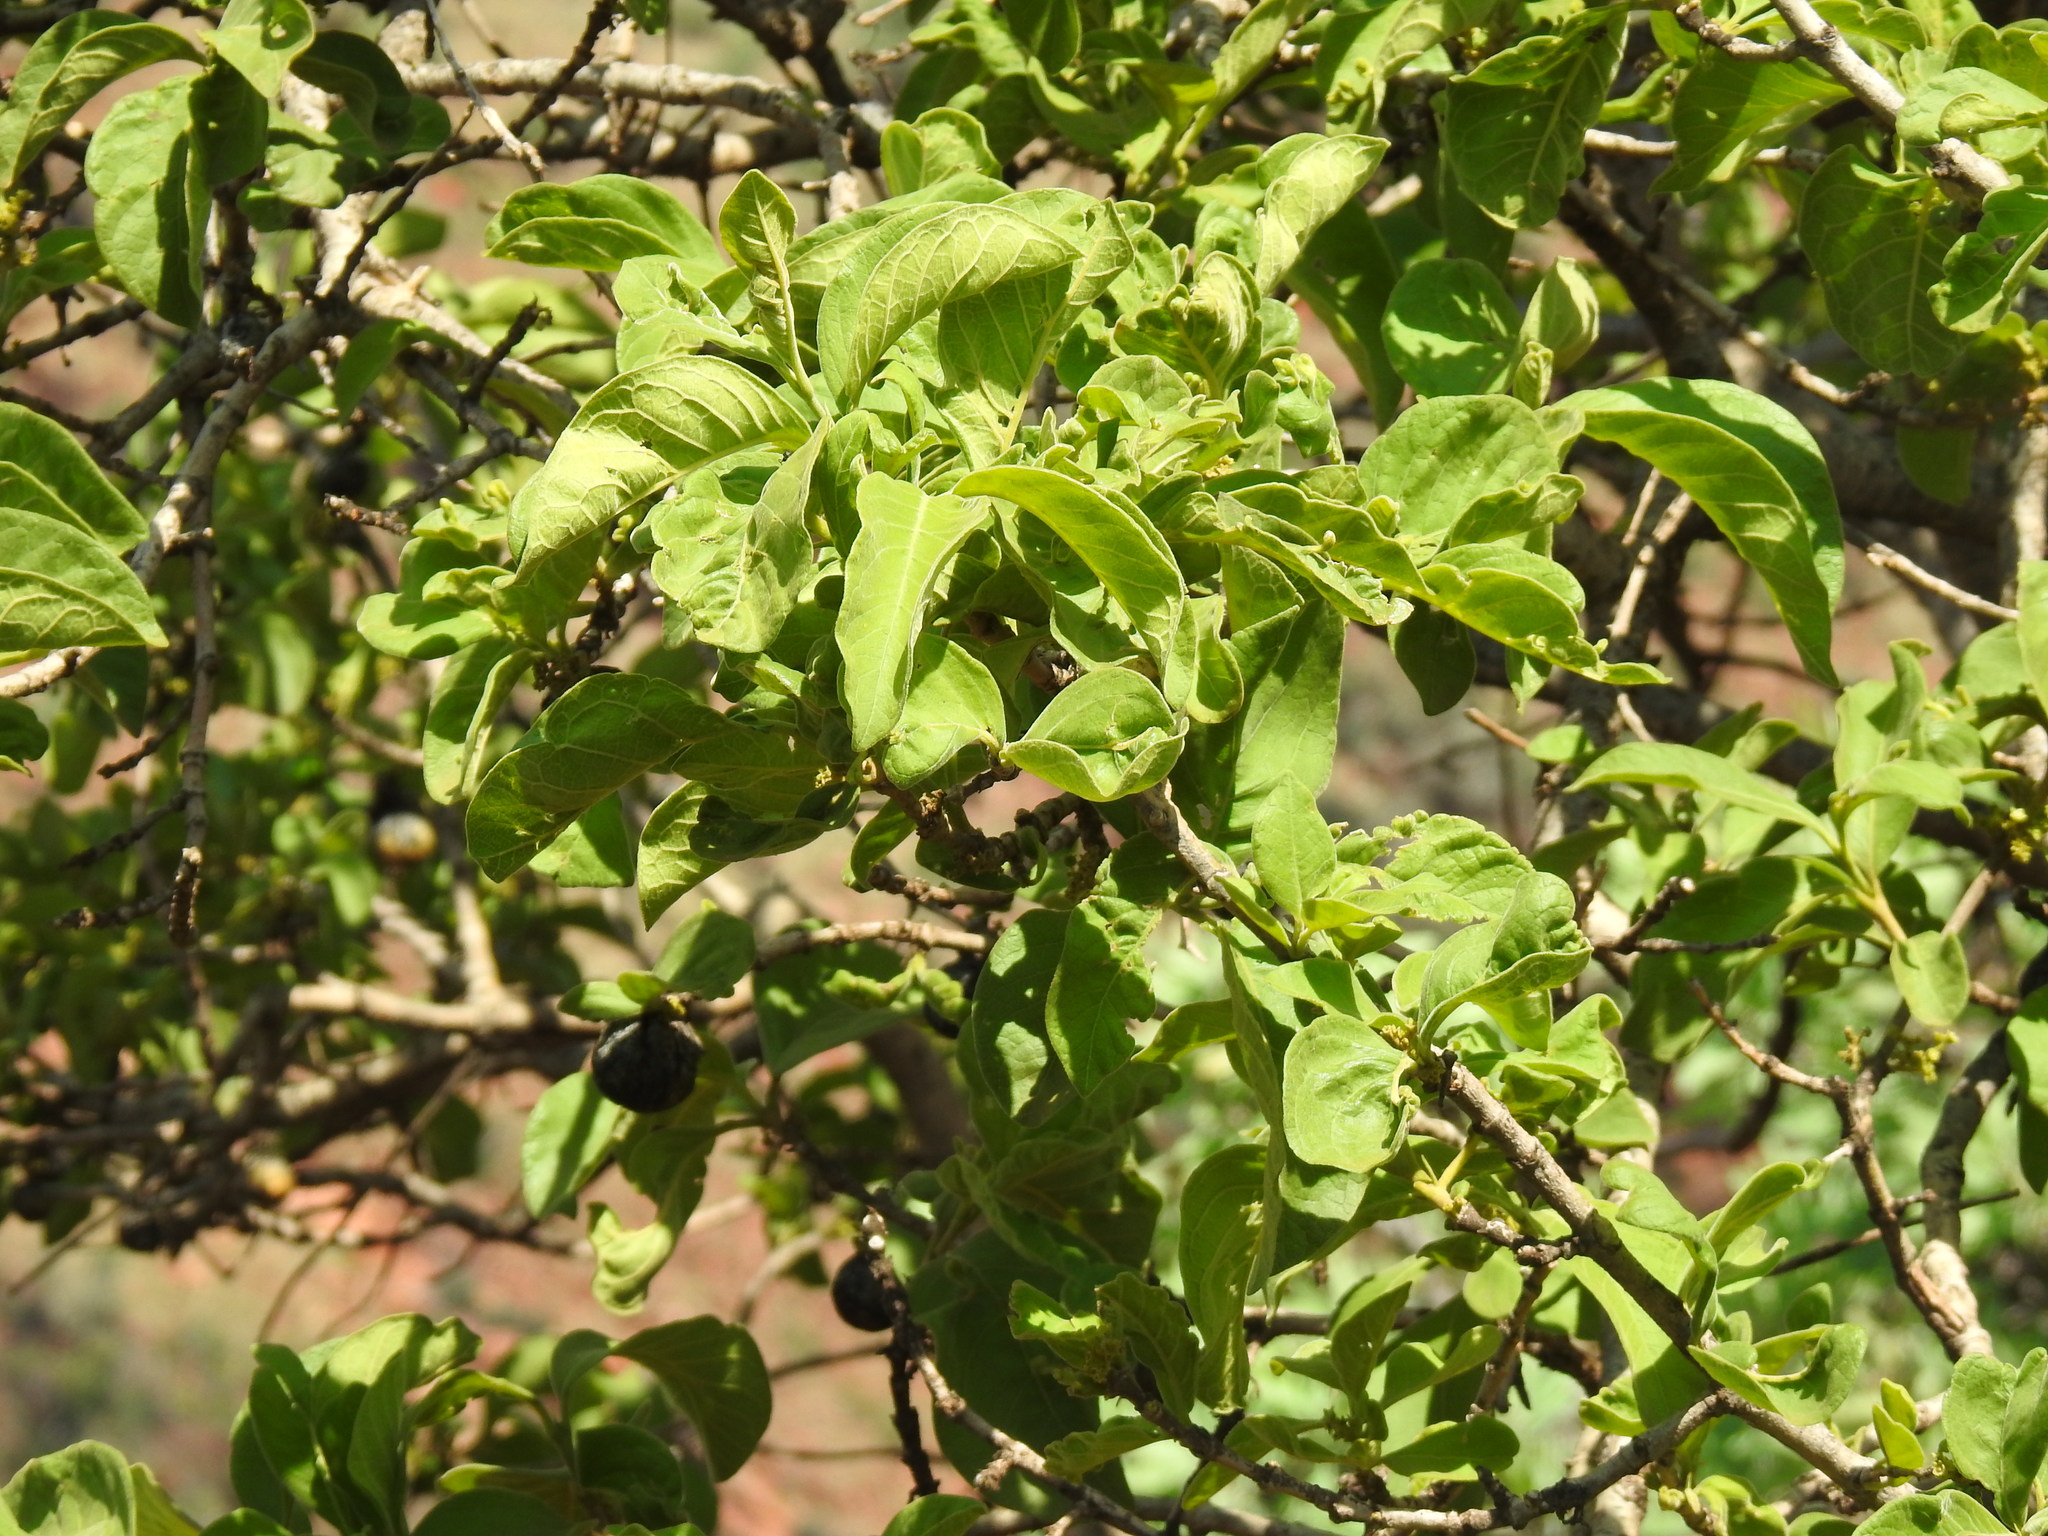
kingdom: Plantae
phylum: Tracheophyta
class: Magnoliopsida
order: Gentianales
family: Rubiaceae
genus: Vangueria
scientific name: Vangueria infausta
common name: Medlar
